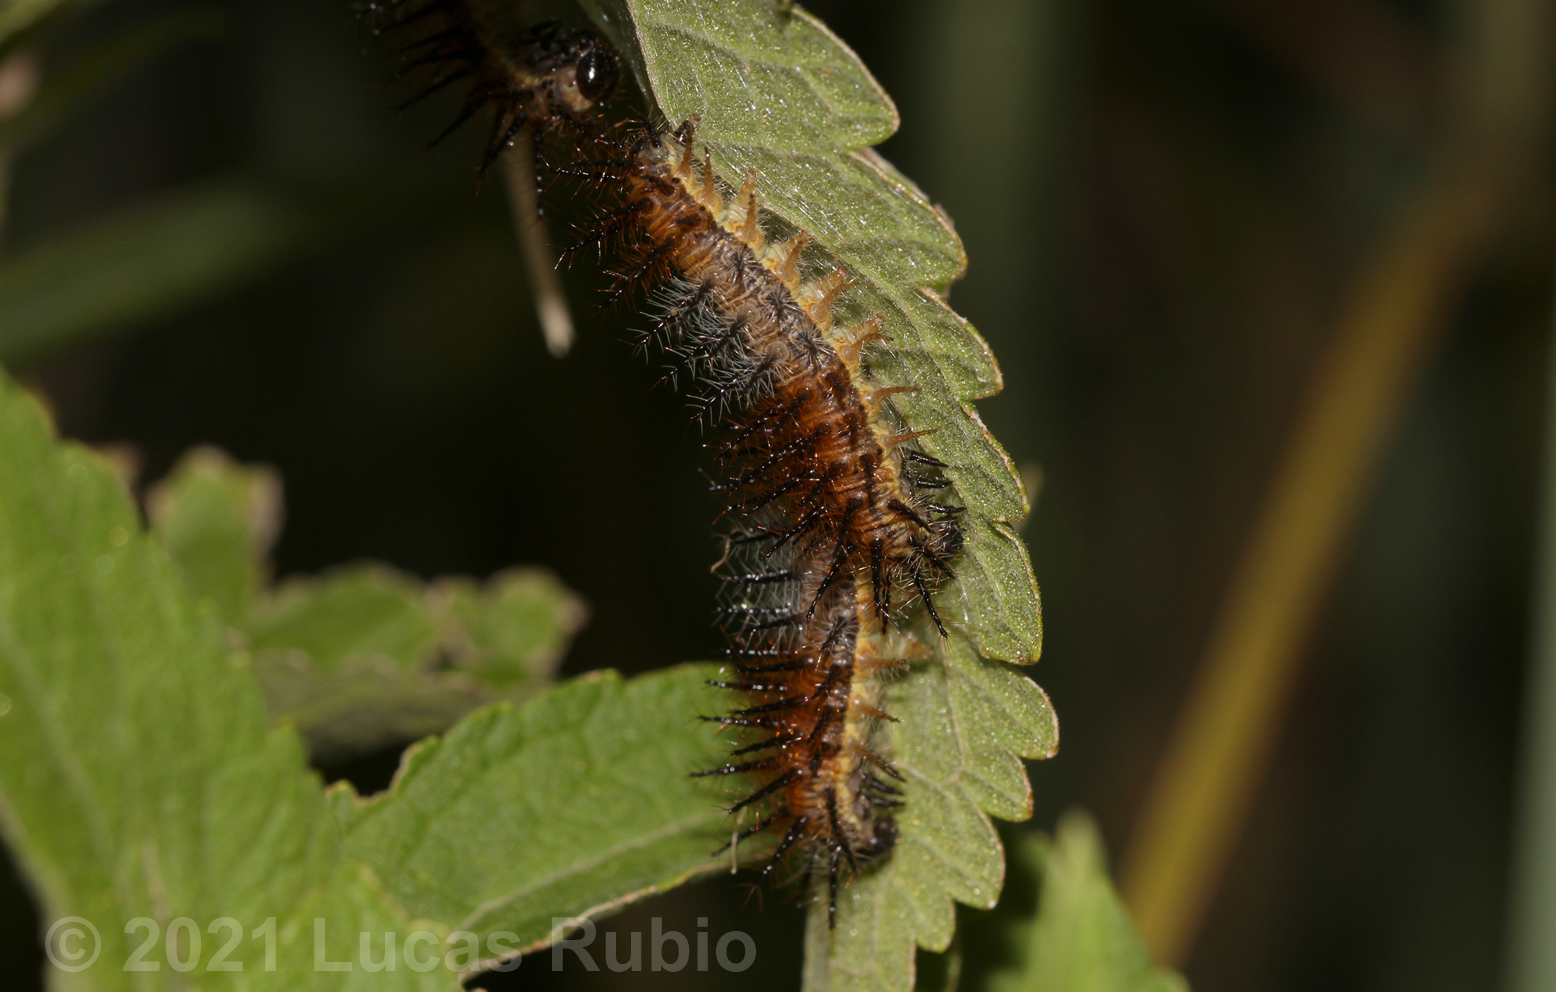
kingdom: Animalia
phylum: Arthropoda
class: Insecta
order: Lepidoptera
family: Nymphalidae
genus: Actinote
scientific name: Actinote pellenea
